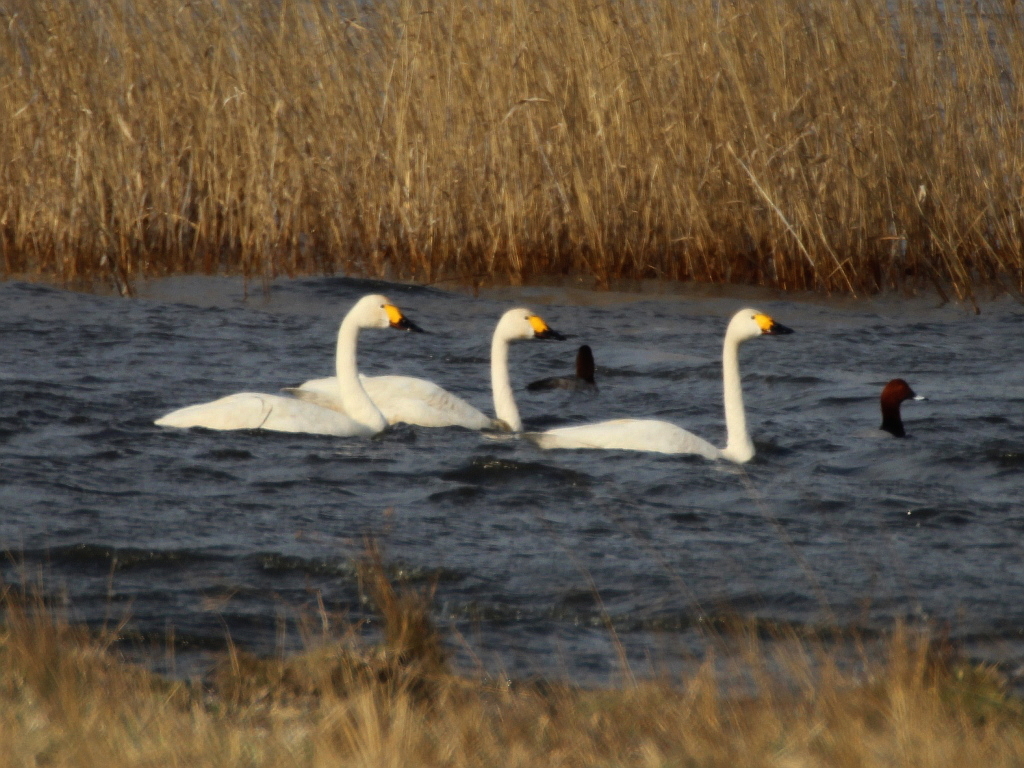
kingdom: Animalia
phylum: Chordata
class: Aves
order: Anseriformes
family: Anatidae
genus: Cygnus
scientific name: Cygnus columbianus
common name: Tundra swan
